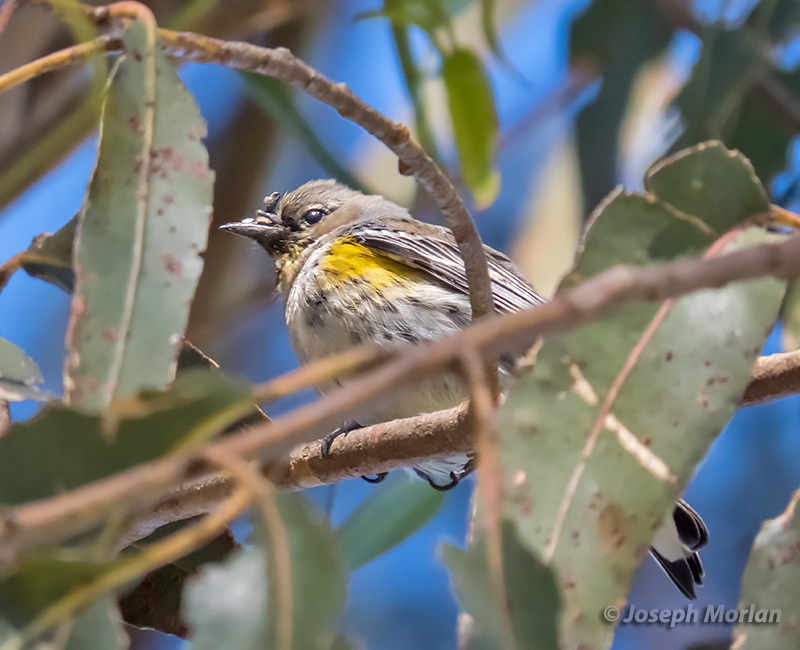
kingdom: Animalia
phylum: Chordata
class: Aves
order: Passeriformes
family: Parulidae
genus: Setophaga
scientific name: Setophaga coronata
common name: Myrtle warbler
